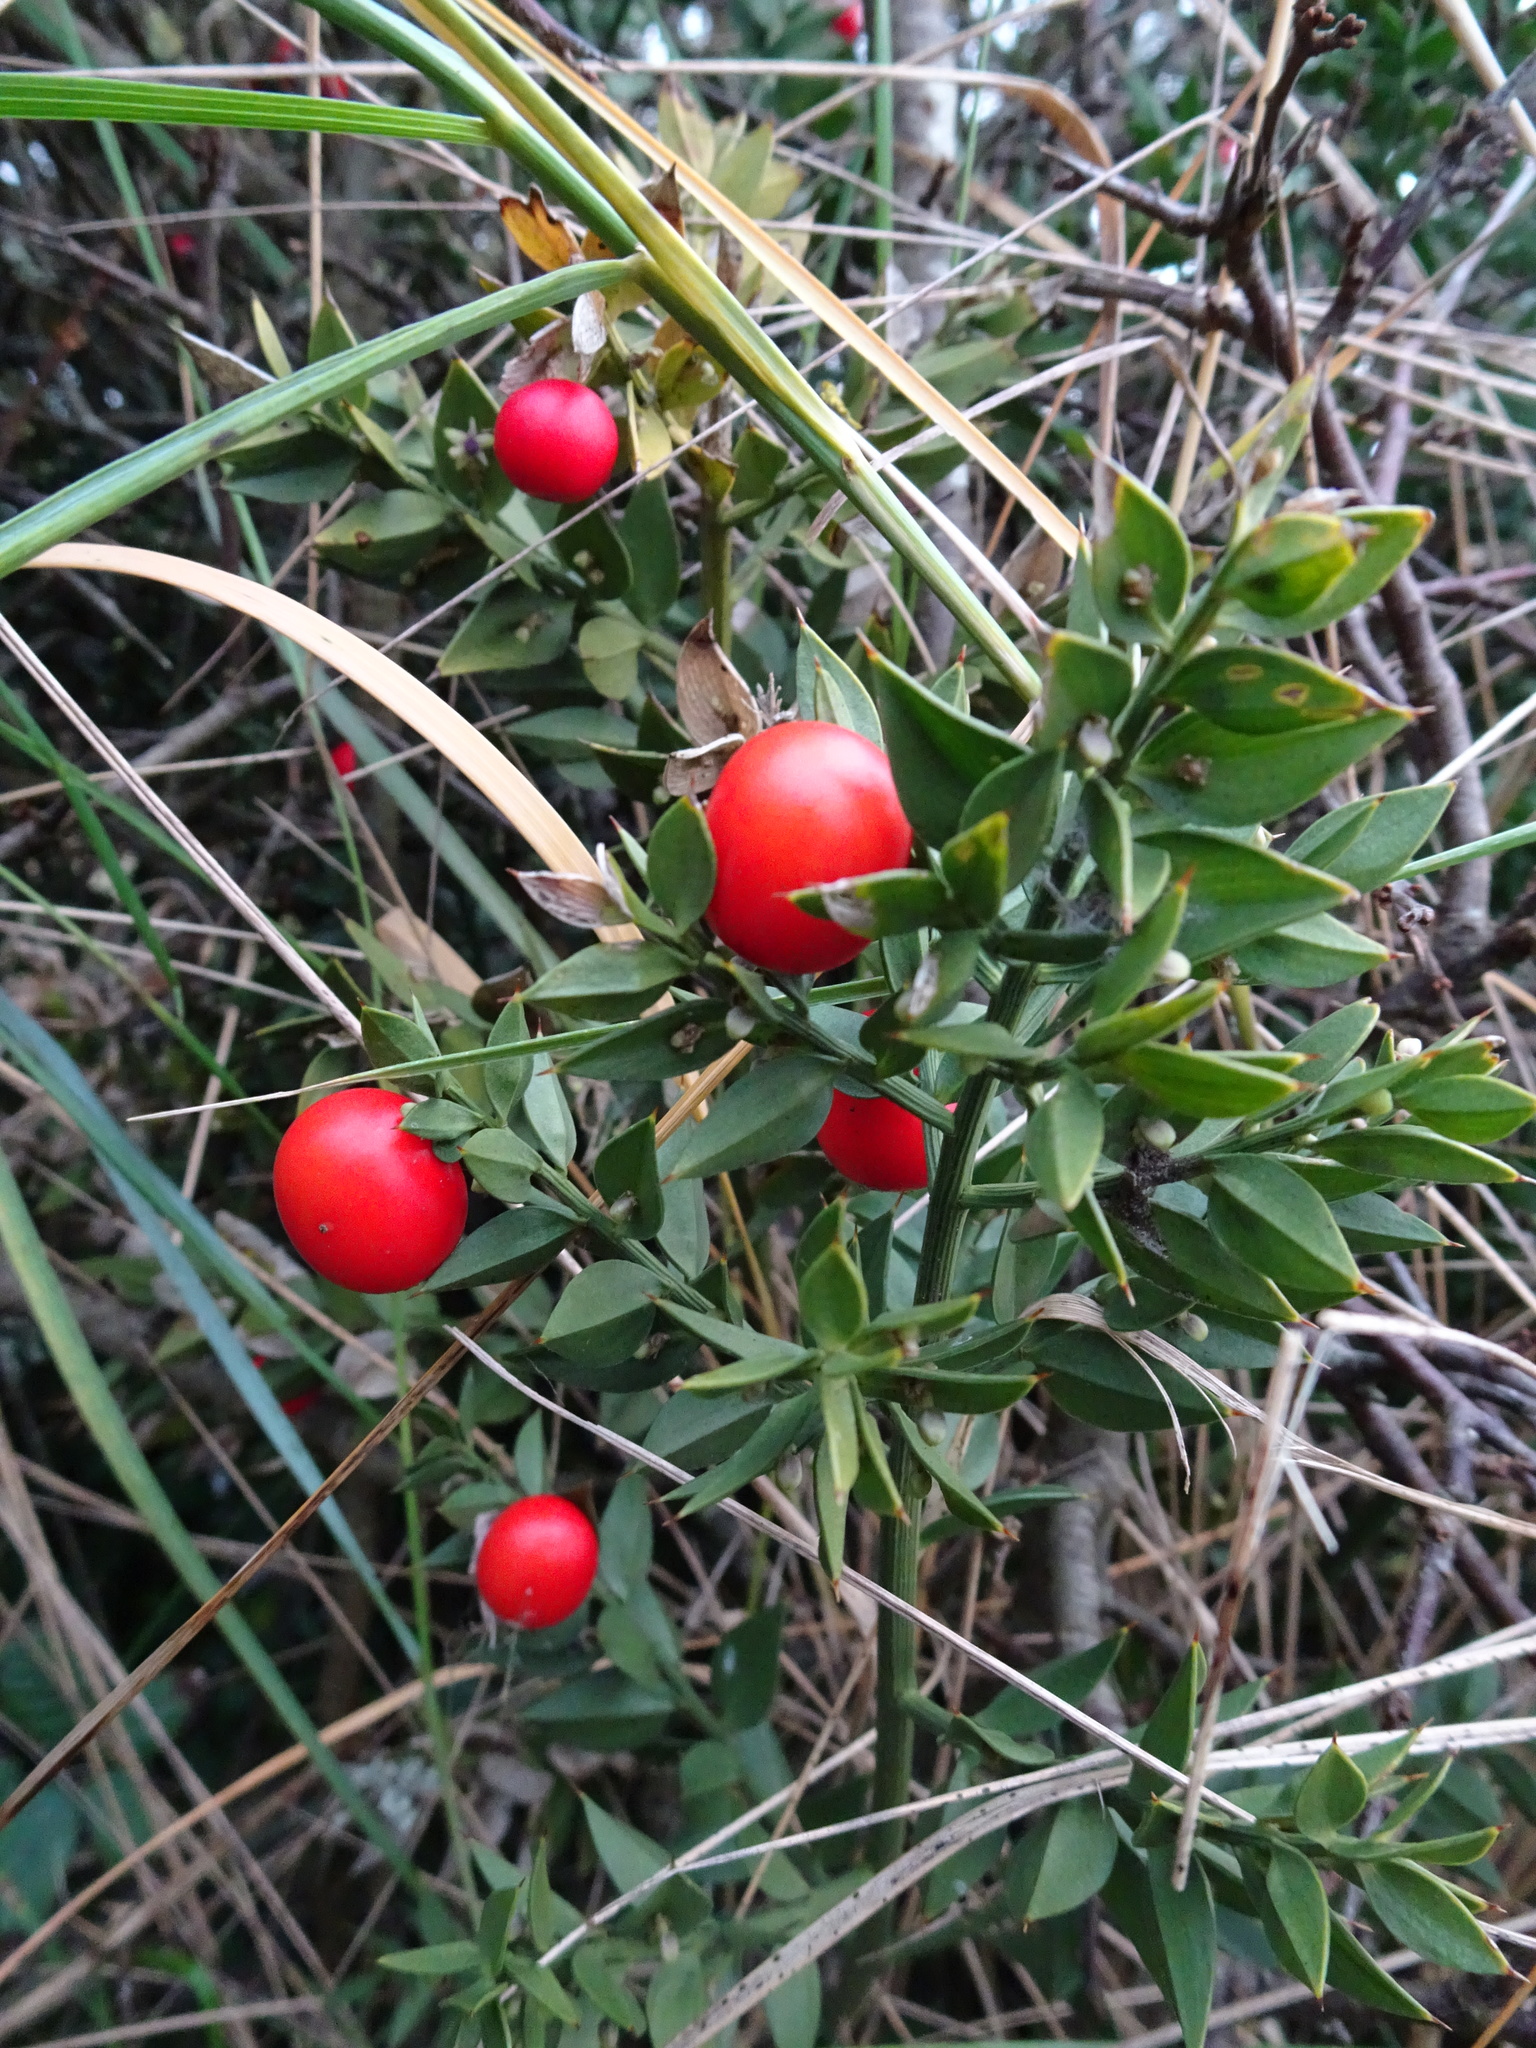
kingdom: Plantae
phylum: Tracheophyta
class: Liliopsida
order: Asparagales
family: Asparagaceae
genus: Ruscus
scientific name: Ruscus aculeatus
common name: Butcher's-broom
